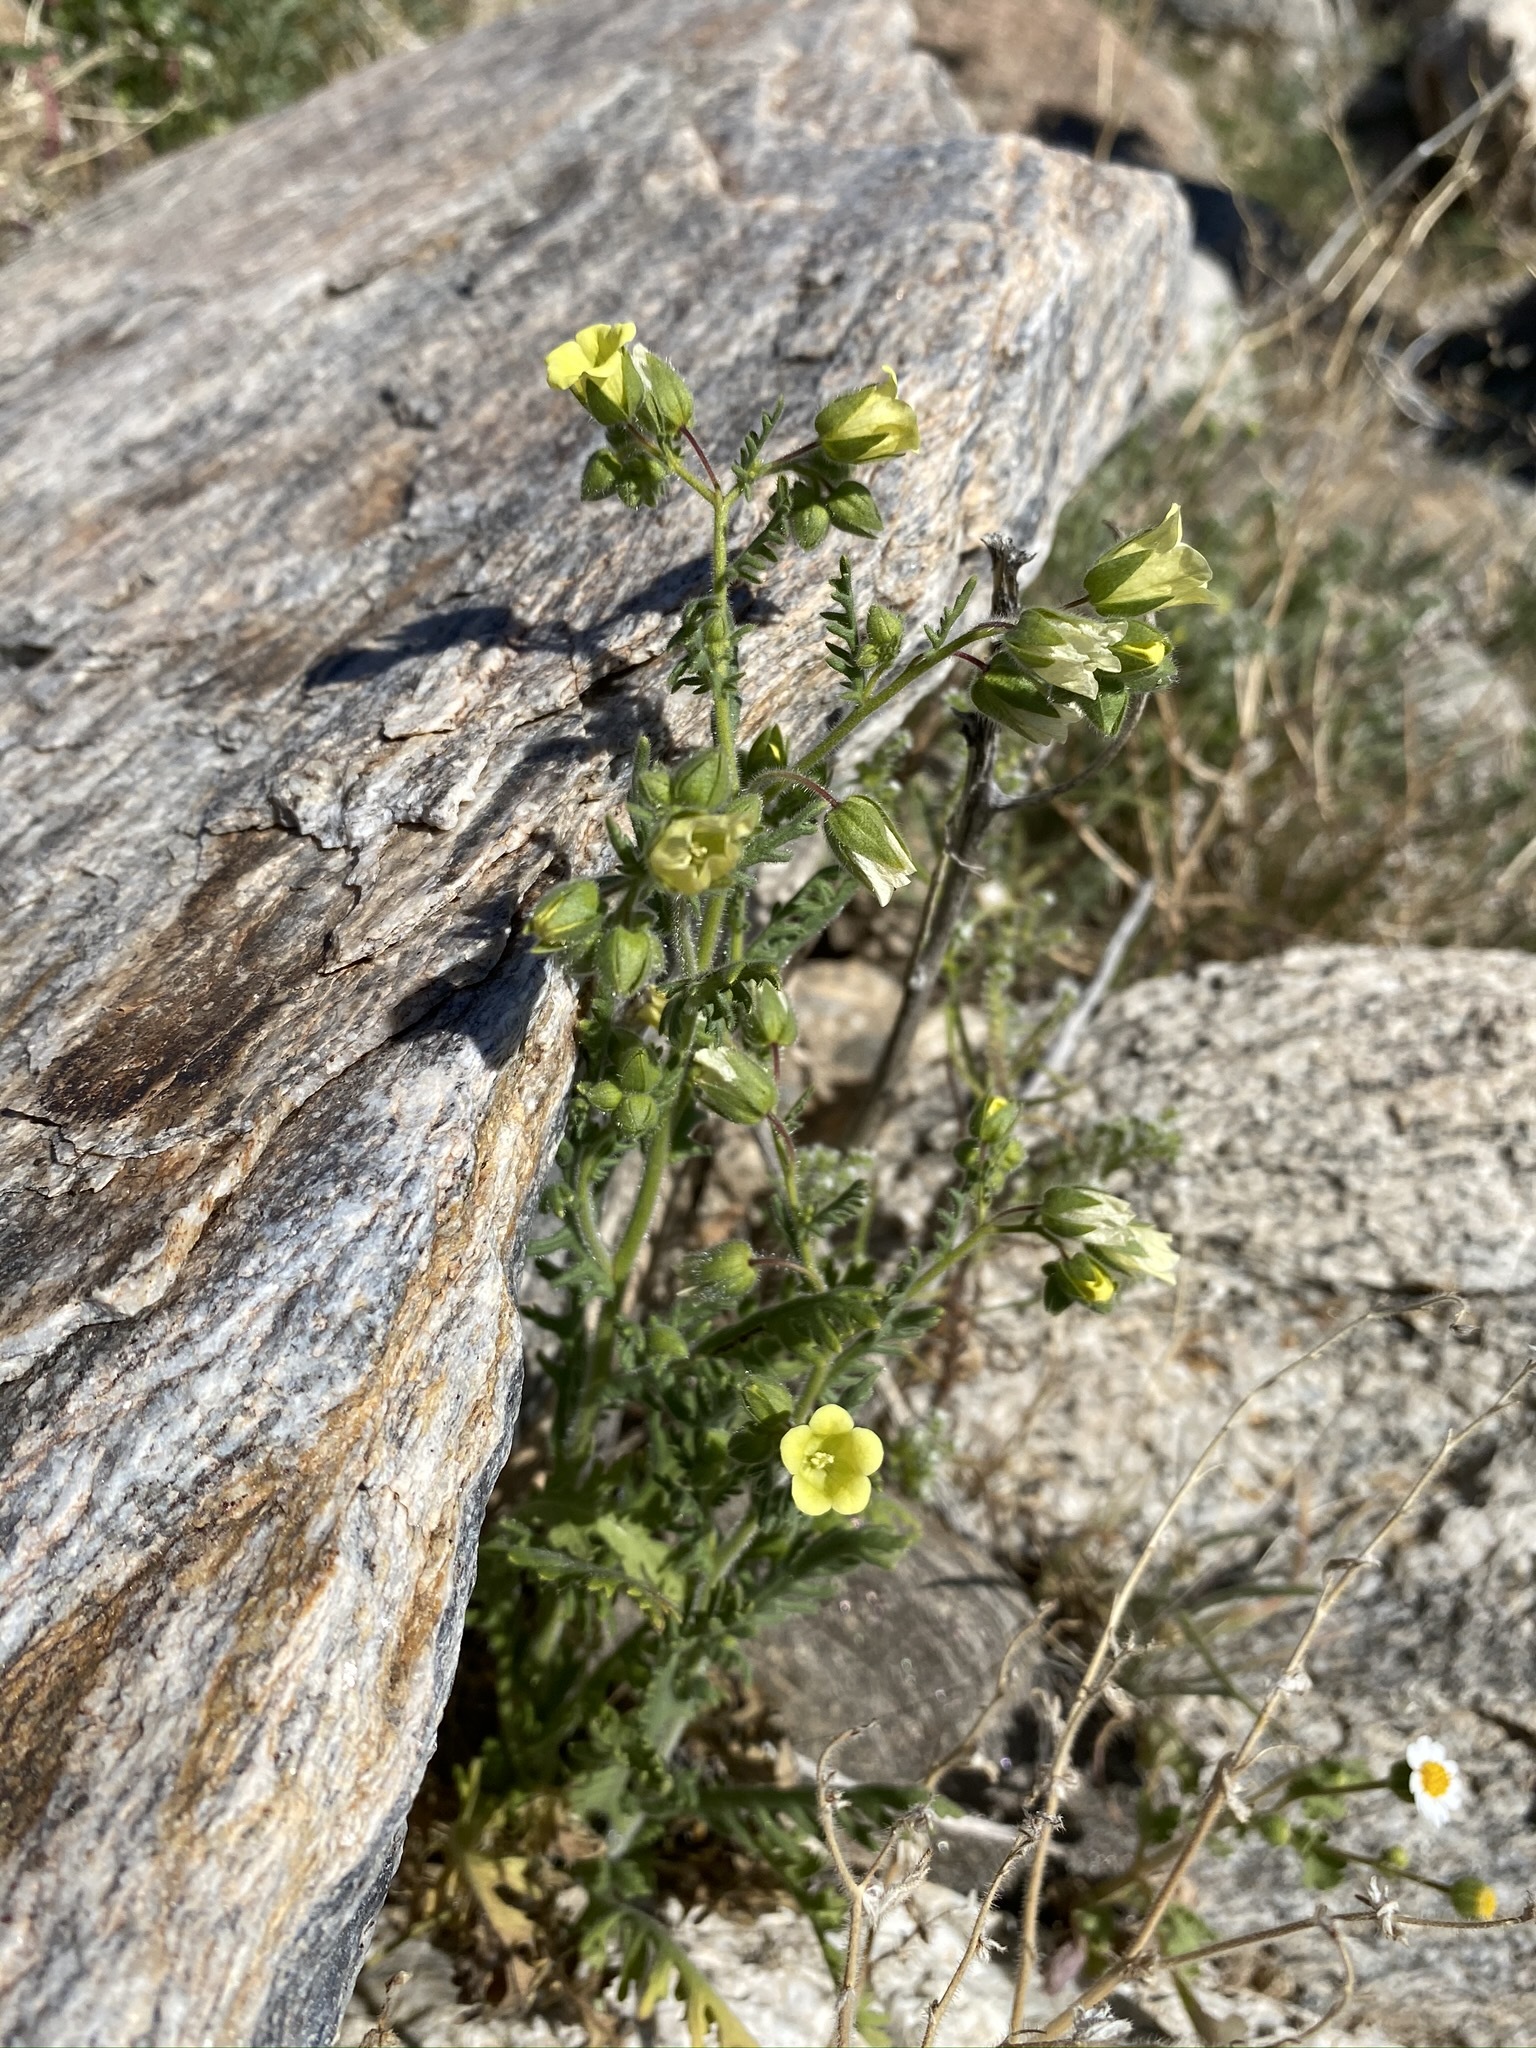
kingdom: Plantae
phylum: Tracheophyta
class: Magnoliopsida
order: Boraginales
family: Hydrophyllaceae
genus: Emmenanthe
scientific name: Emmenanthe penduliflora
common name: Whispering-bells
